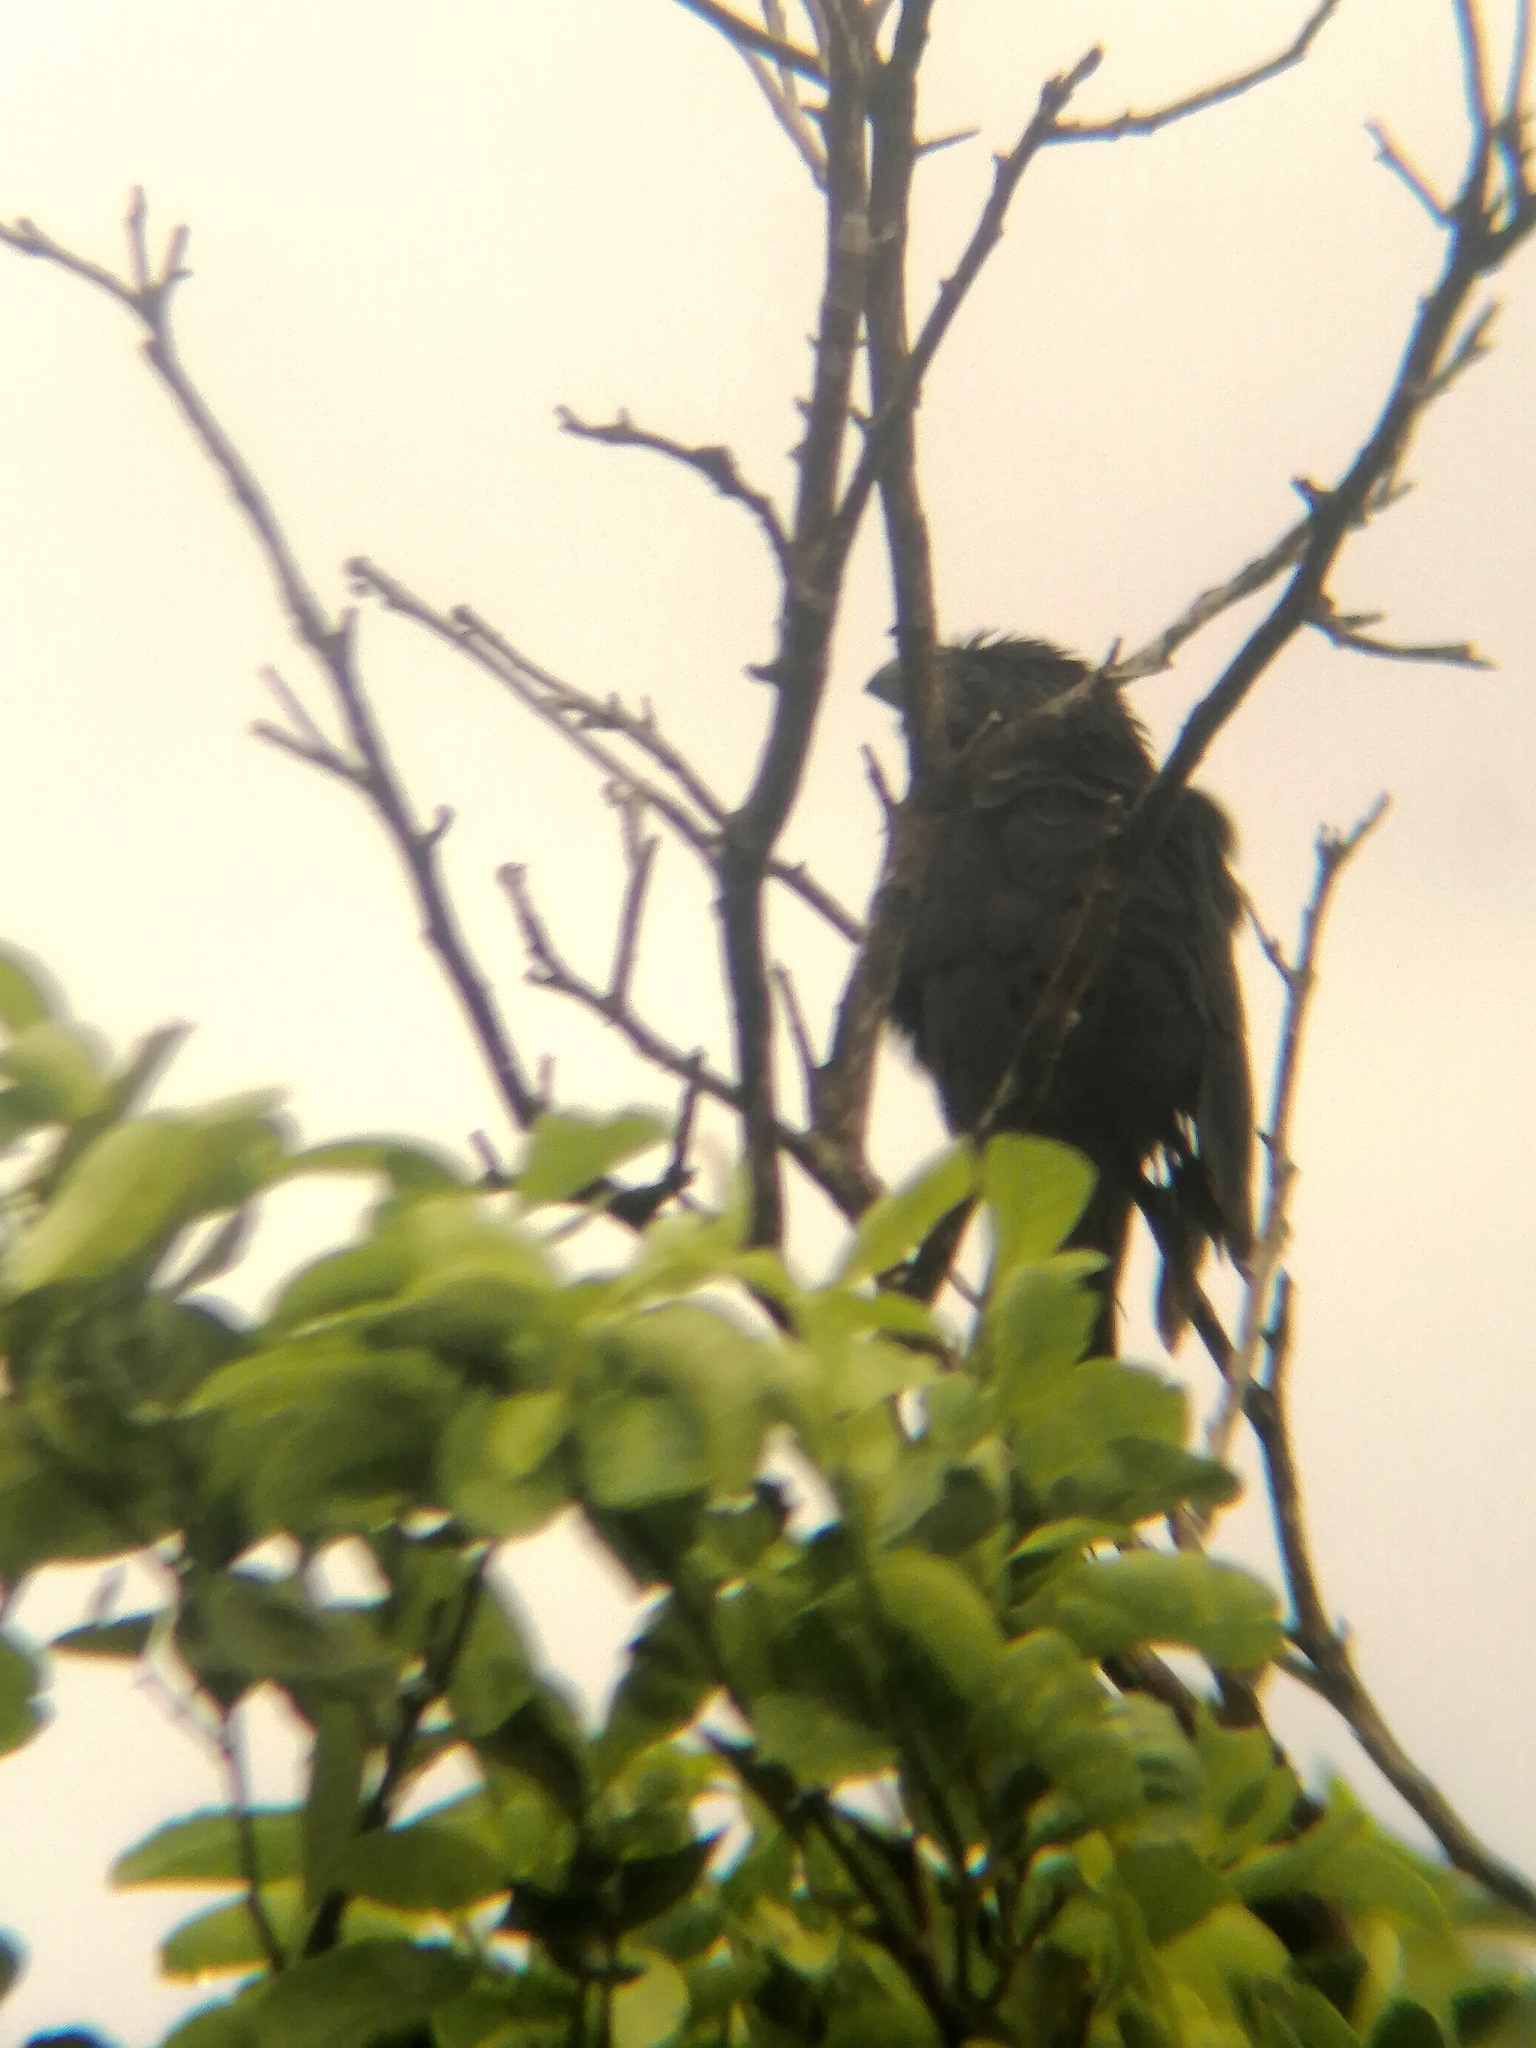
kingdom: Animalia
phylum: Chordata
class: Aves
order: Cuculiformes
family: Cuculidae
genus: Crotophaga
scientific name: Crotophaga sulcirostris
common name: Groove-billed ani
